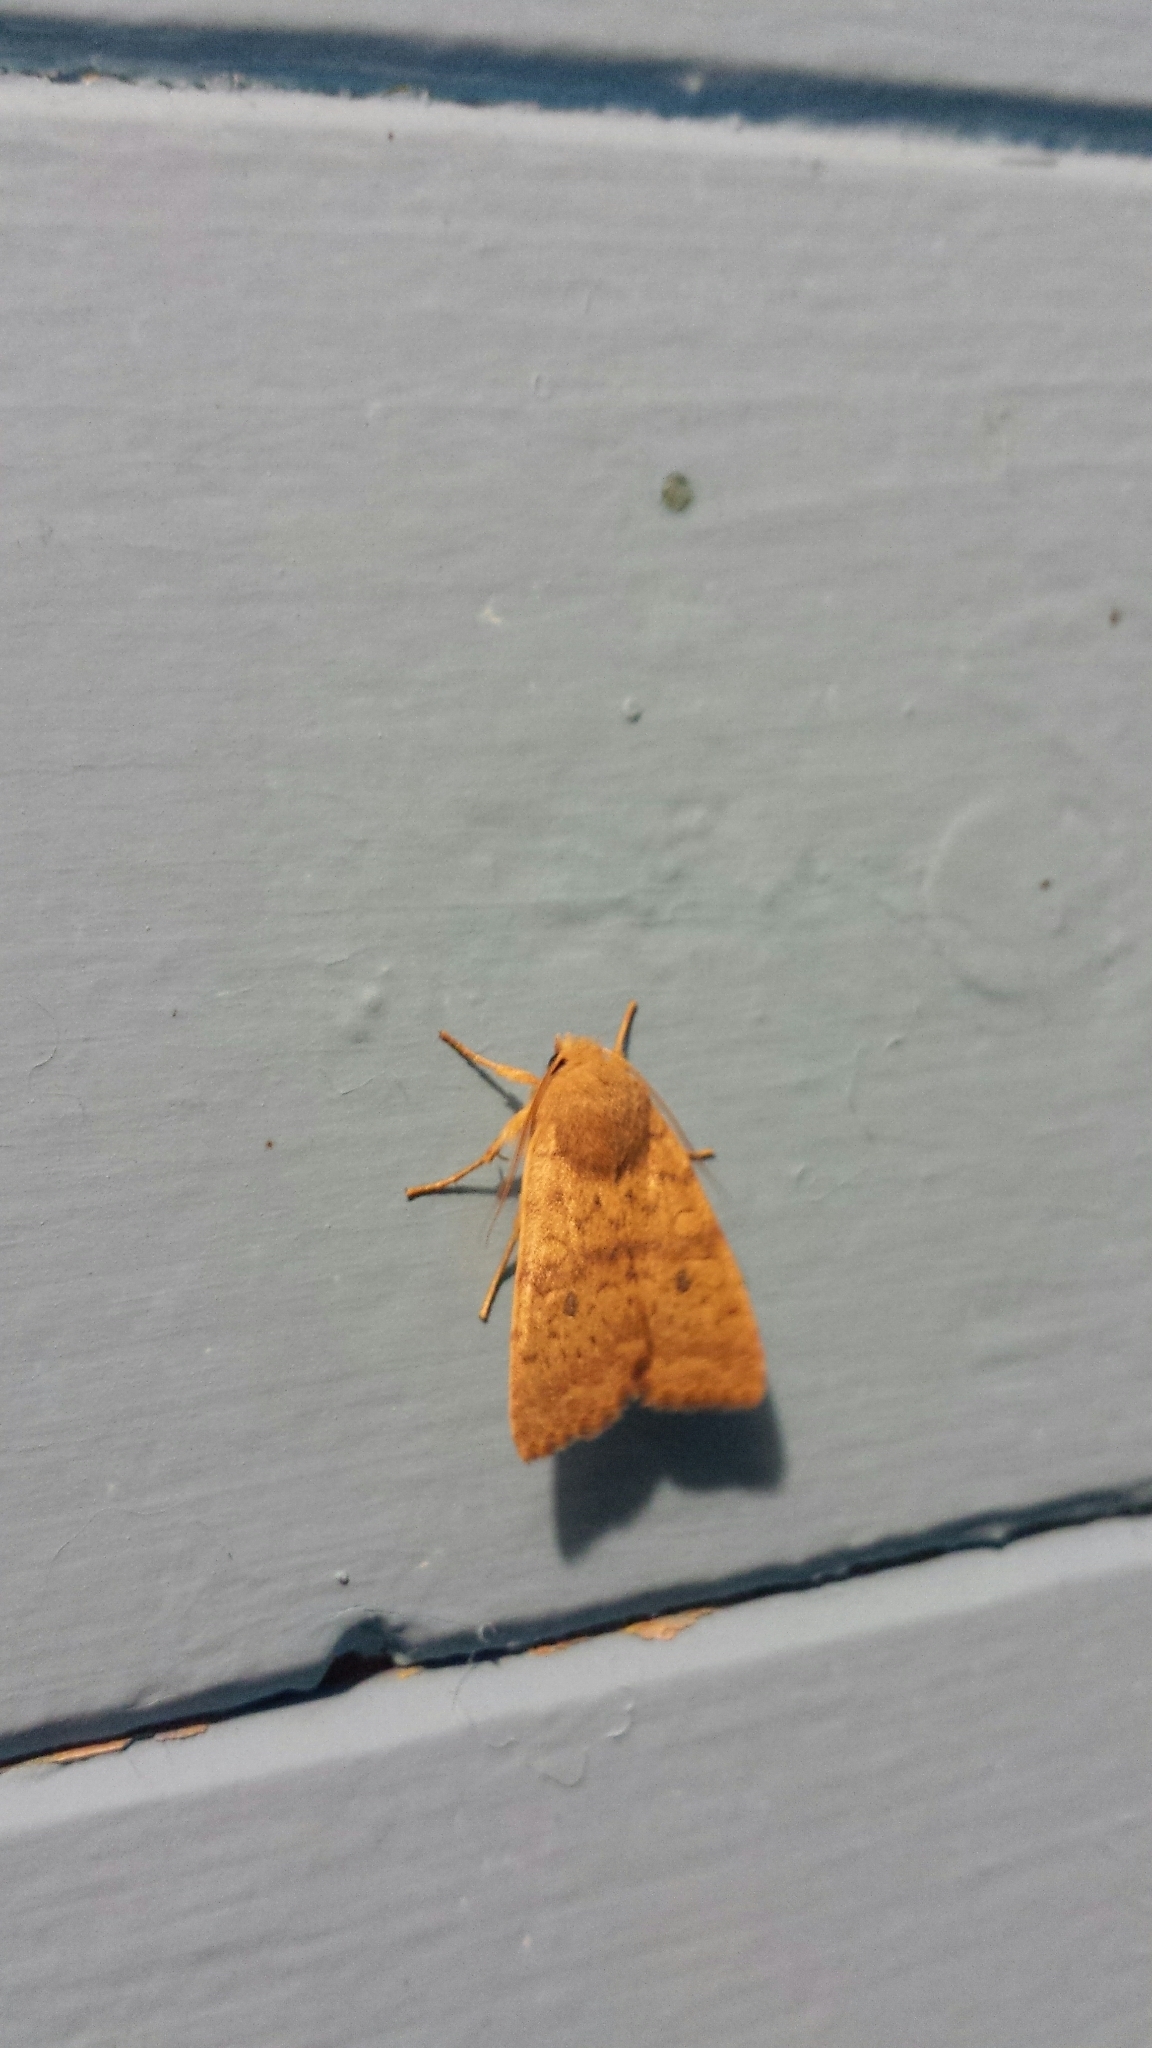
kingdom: Animalia
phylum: Arthropoda
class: Insecta
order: Lepidoptera
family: Noctuidae
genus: Agrochola
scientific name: Agrochola bicolorago
